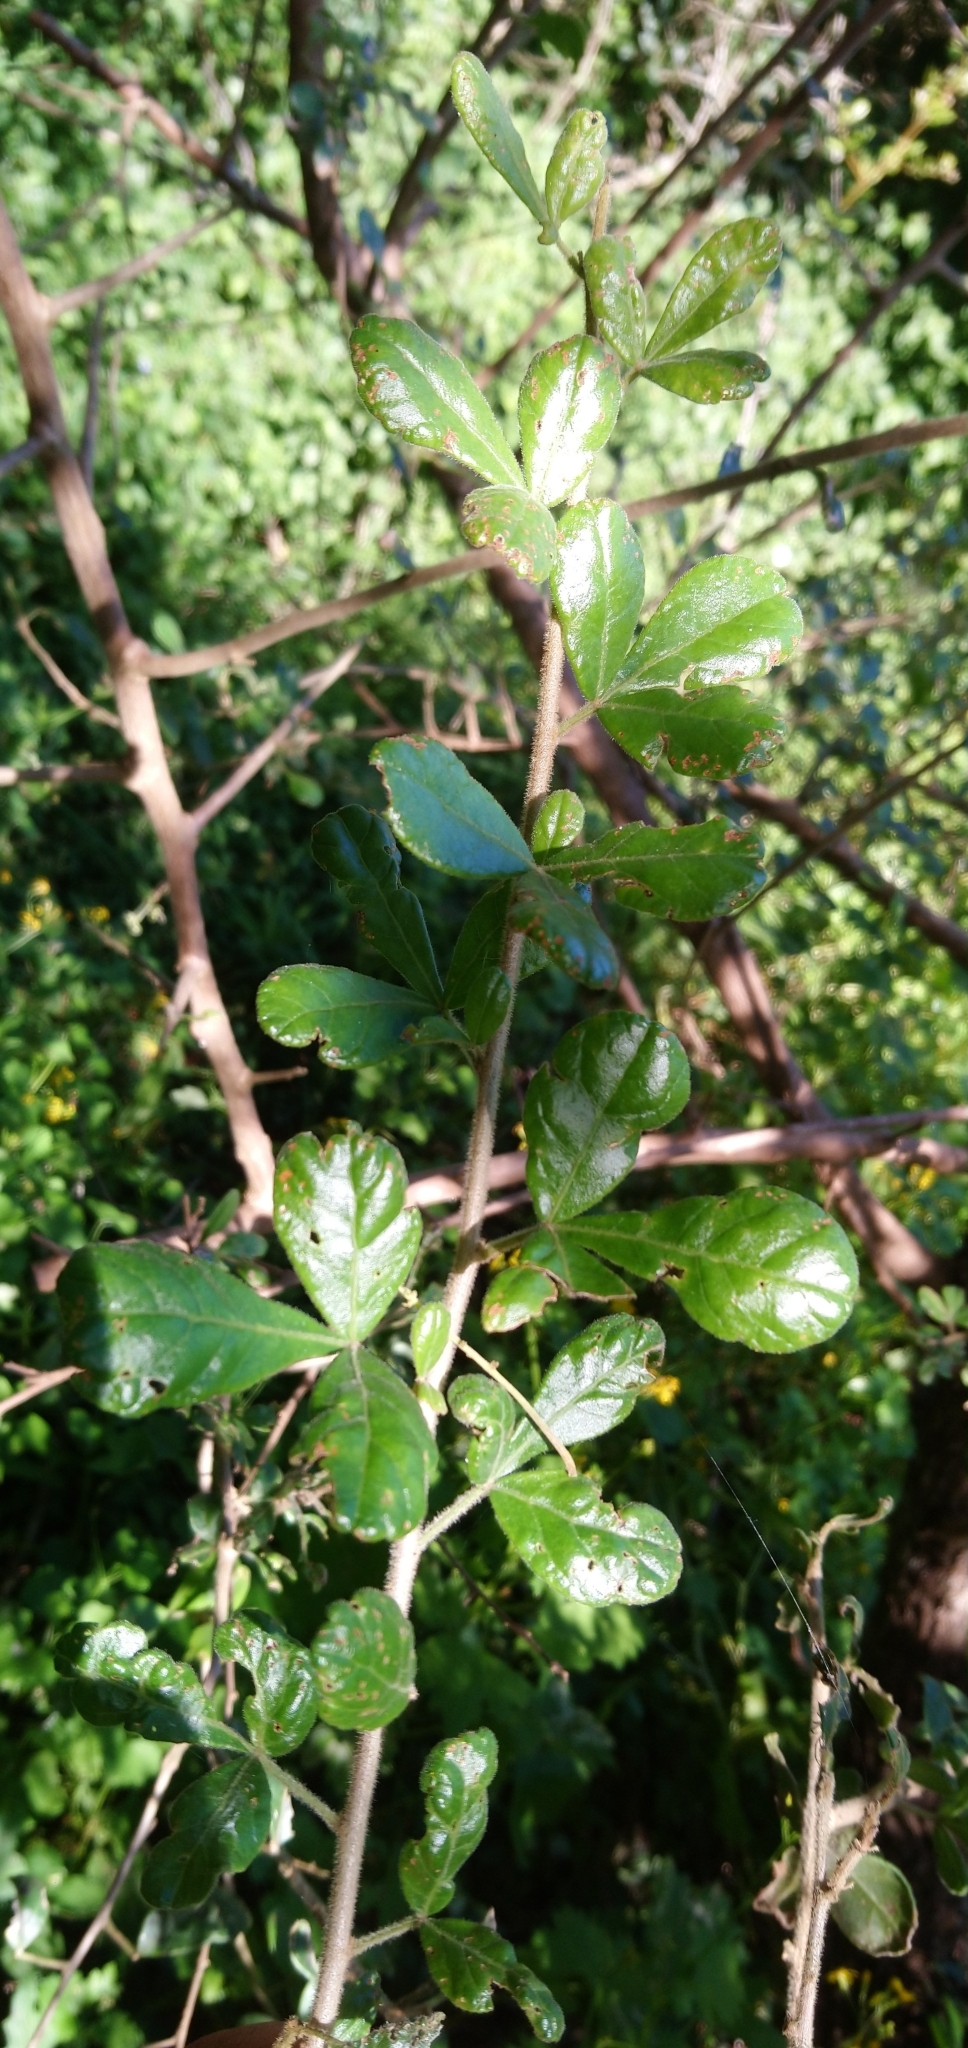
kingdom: Plantae
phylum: Tracheophyta
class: Magnoliopsida
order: Sapindales
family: Anacardiaceae
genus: Searsia
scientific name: Searsia refracta
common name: Thorny crow-berry
